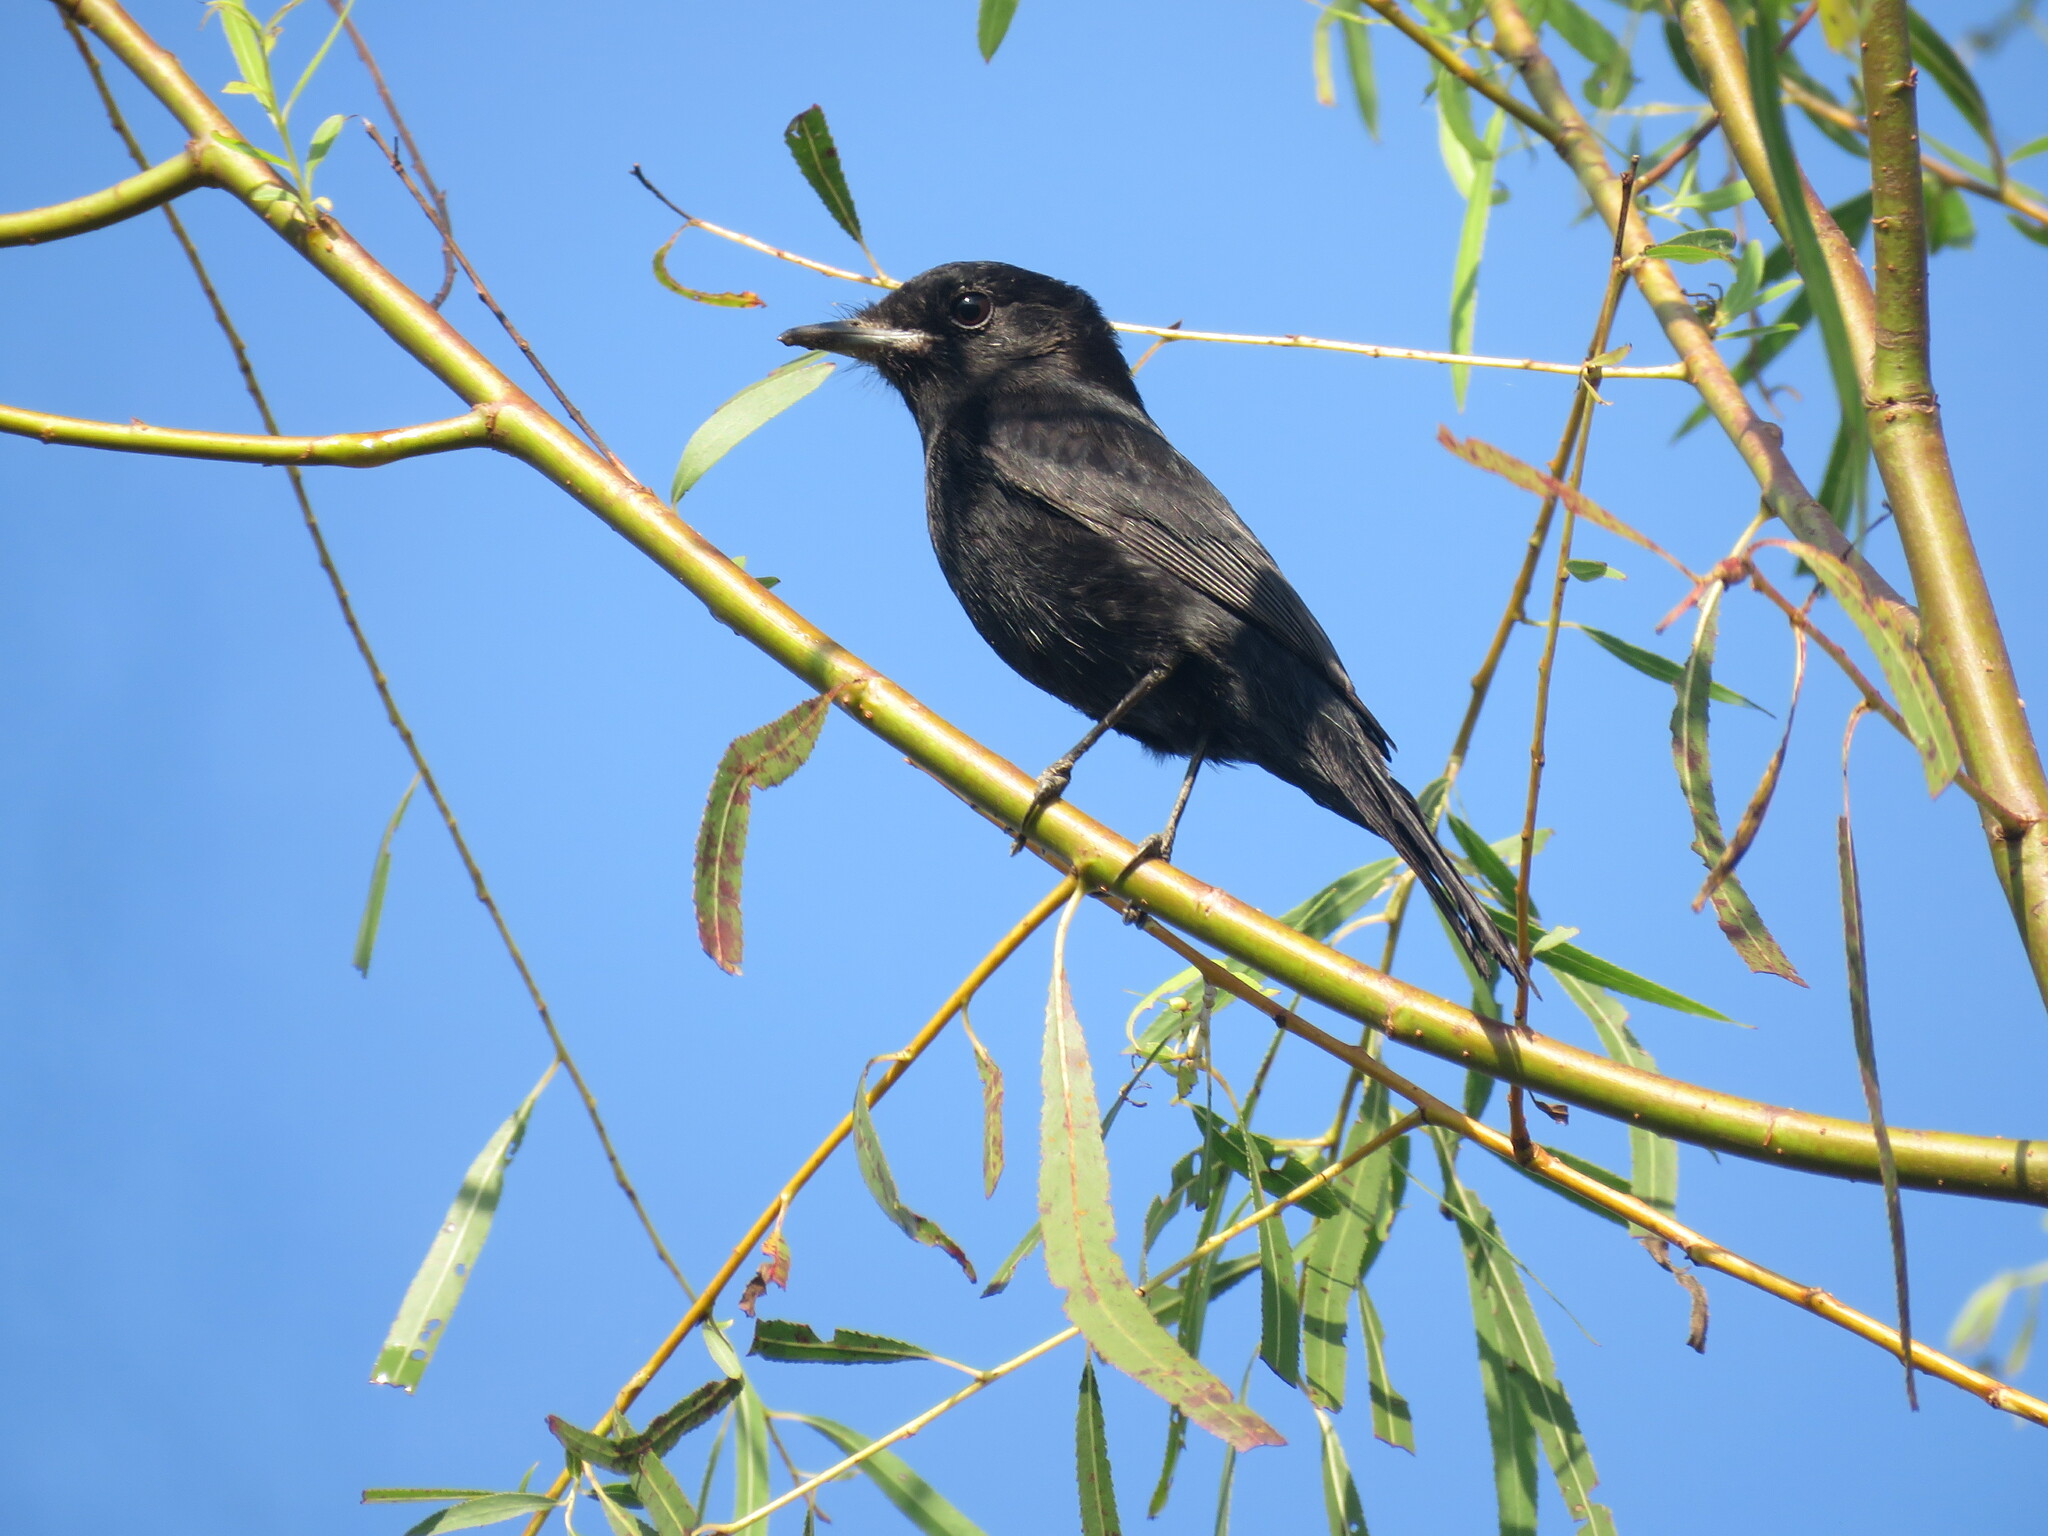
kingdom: Animalia
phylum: Chordata
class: Aves
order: Passeriformes
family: Tyrannidae
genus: Knipolegus
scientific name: Knipolegus hudsoni
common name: Hudson's black tyrant
